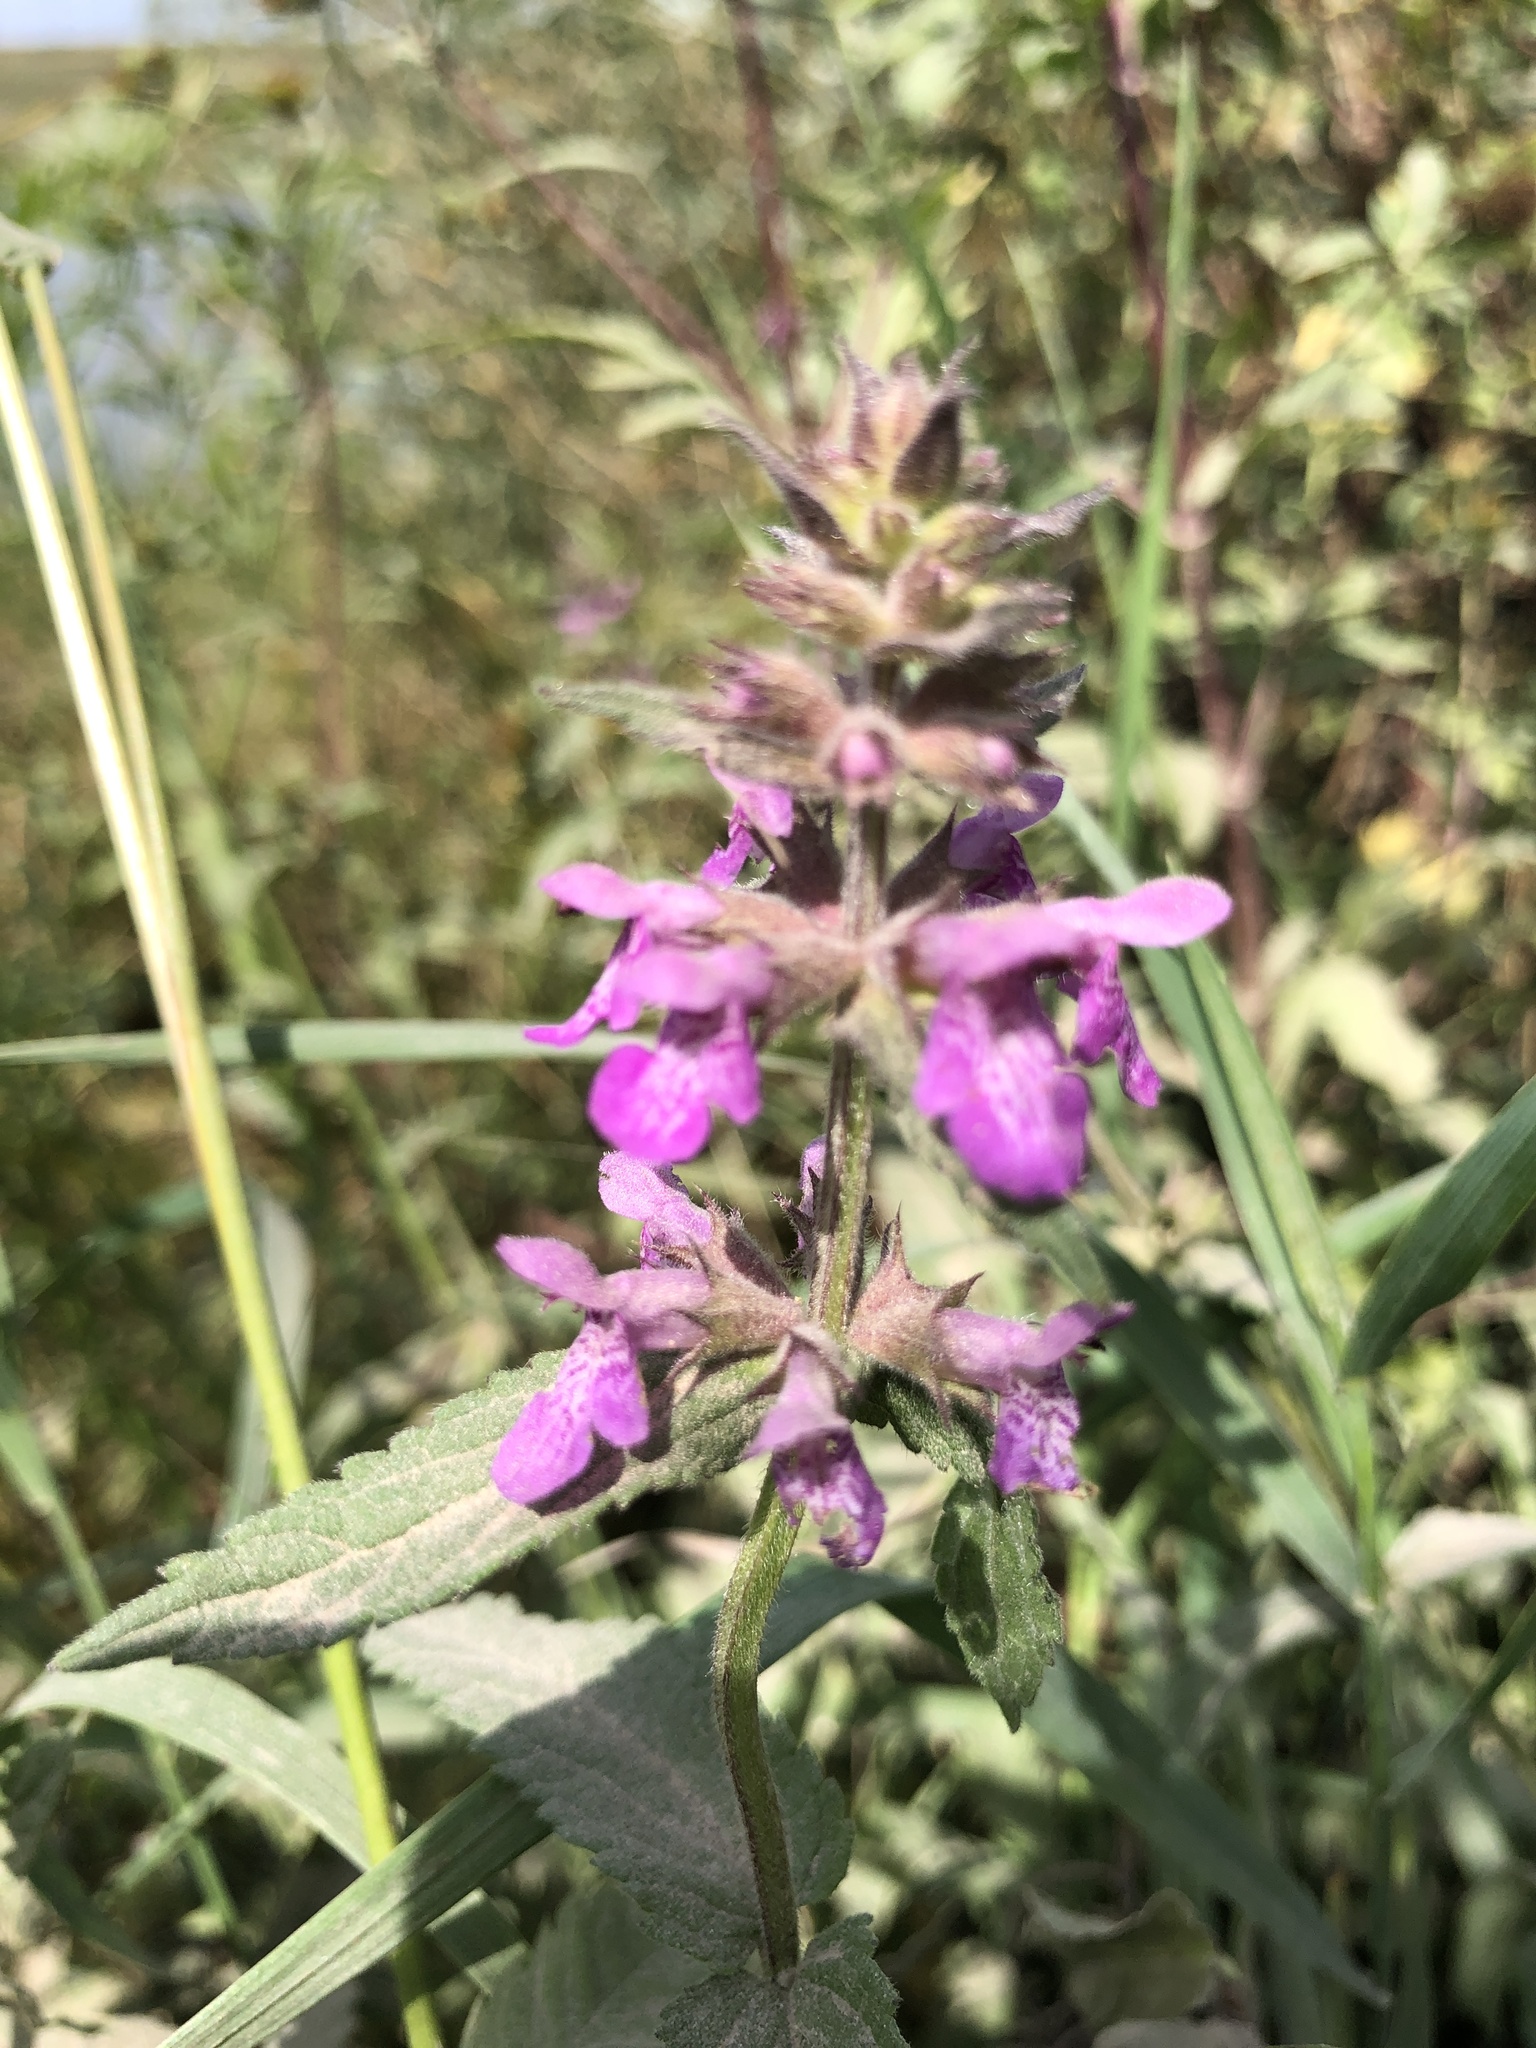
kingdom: Plantae
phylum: Tracheophyta
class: Magnoliopsida
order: Lamiales
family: Lamiaceae
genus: Stachys
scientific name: Stachys palustris
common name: Marsh woundwort
